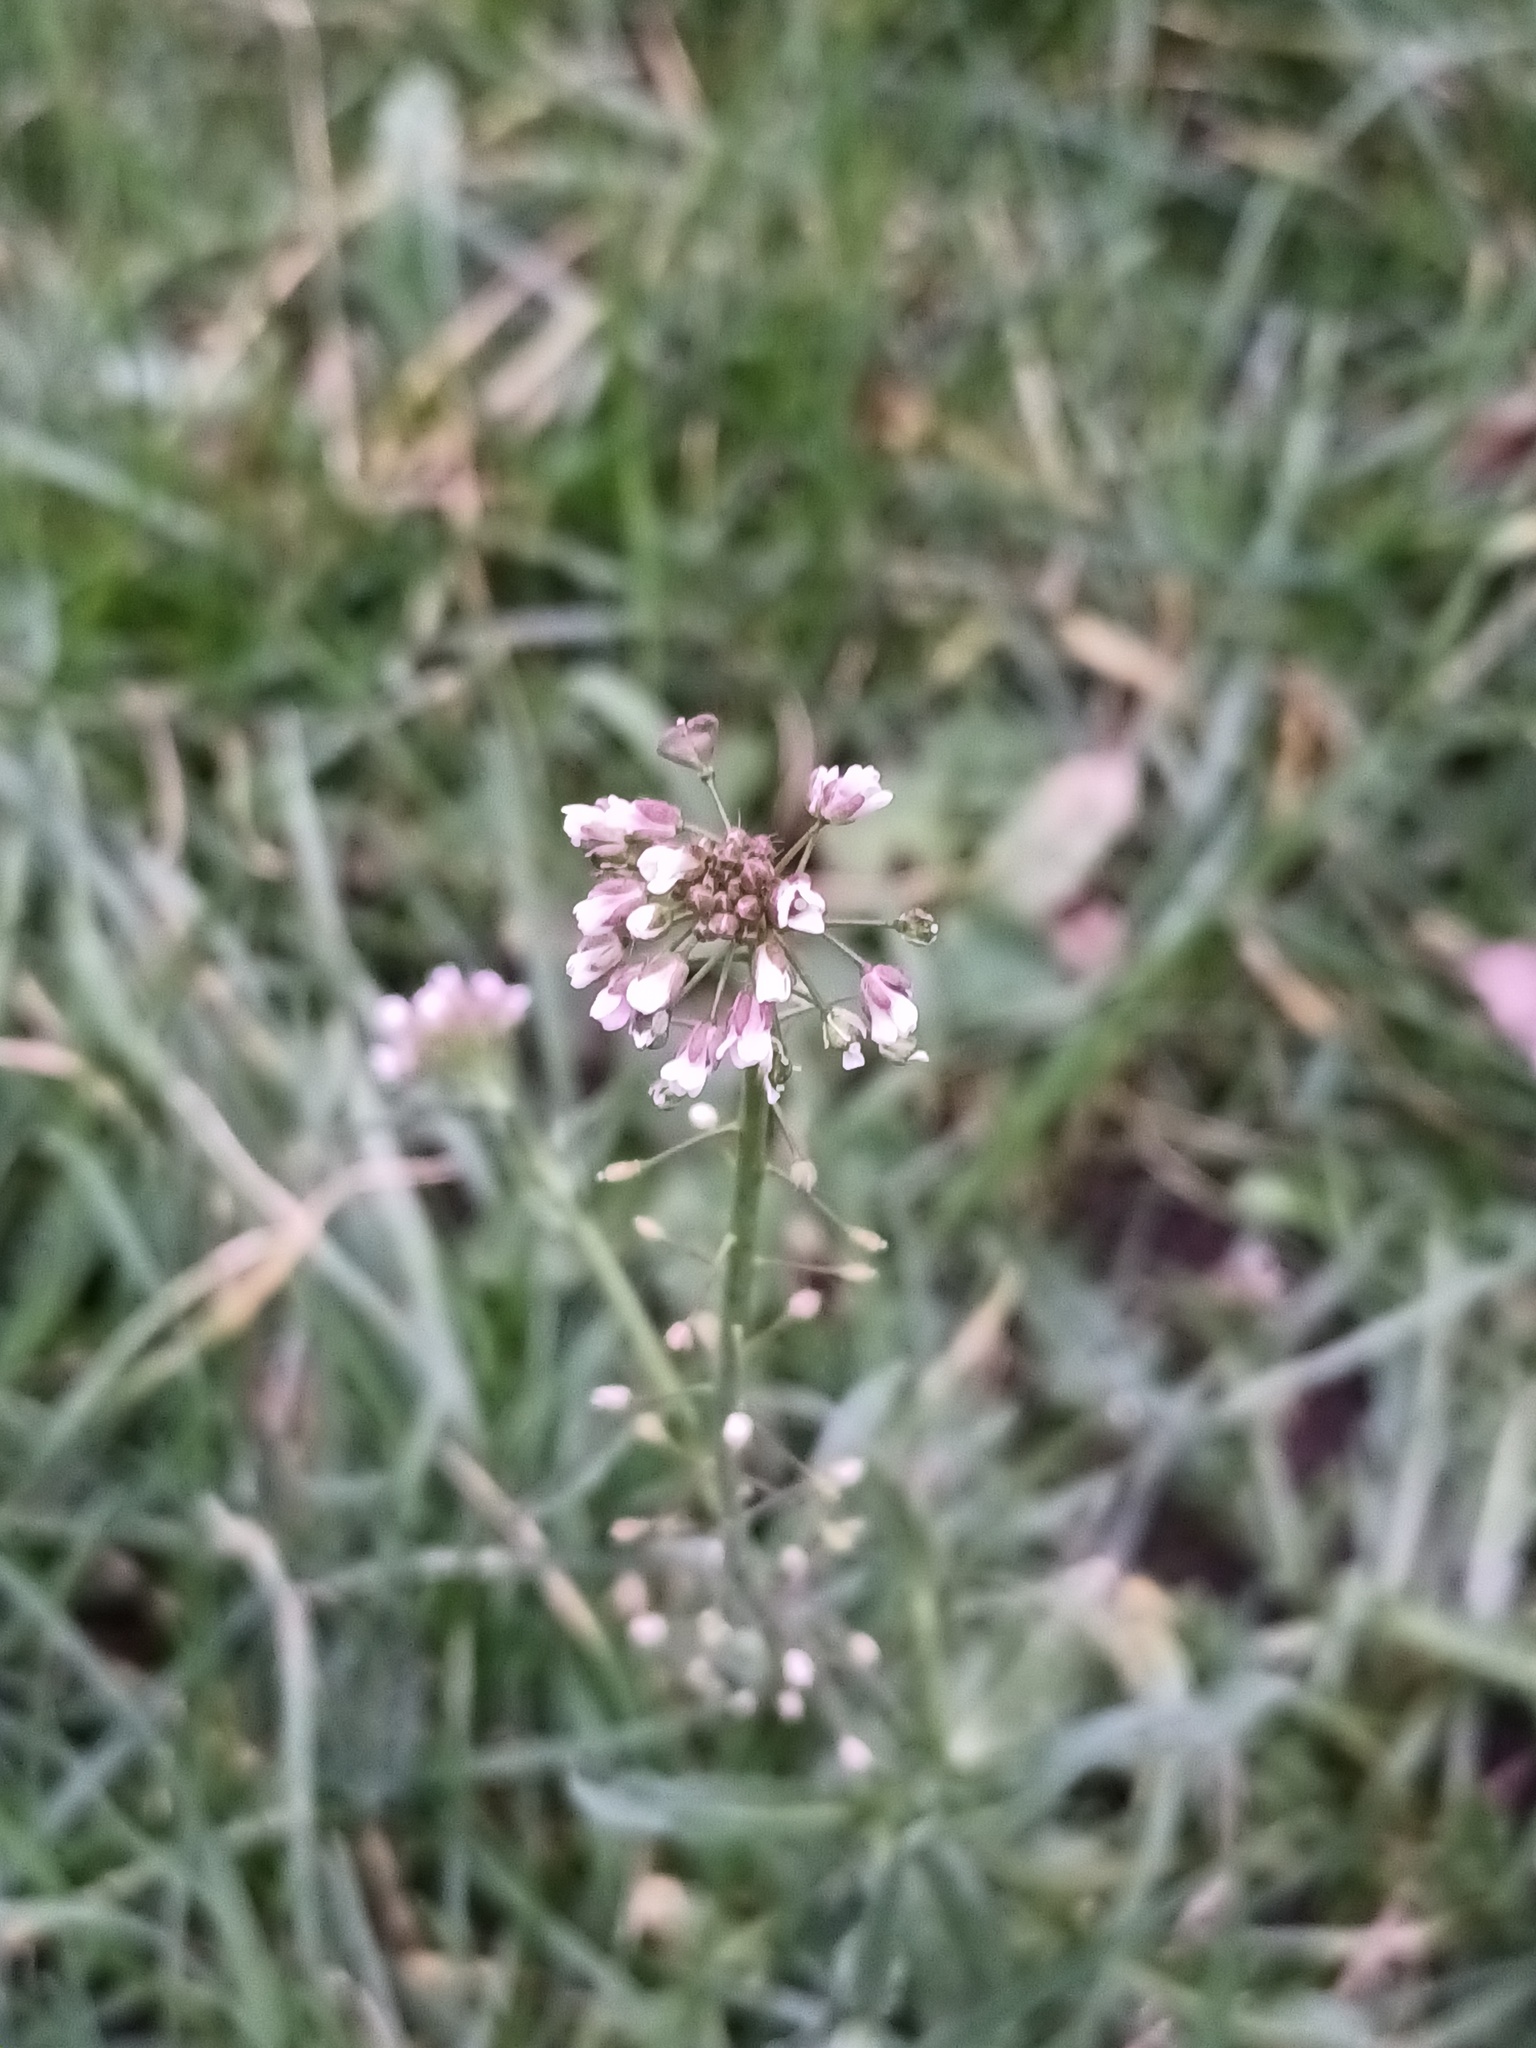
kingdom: Plantae
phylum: Tracheophyta
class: Magnoliopsida
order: Brassicales
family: Brassicaceae
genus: Capsella
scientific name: Capsella bursa-pastoris
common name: Shepherd's purse
